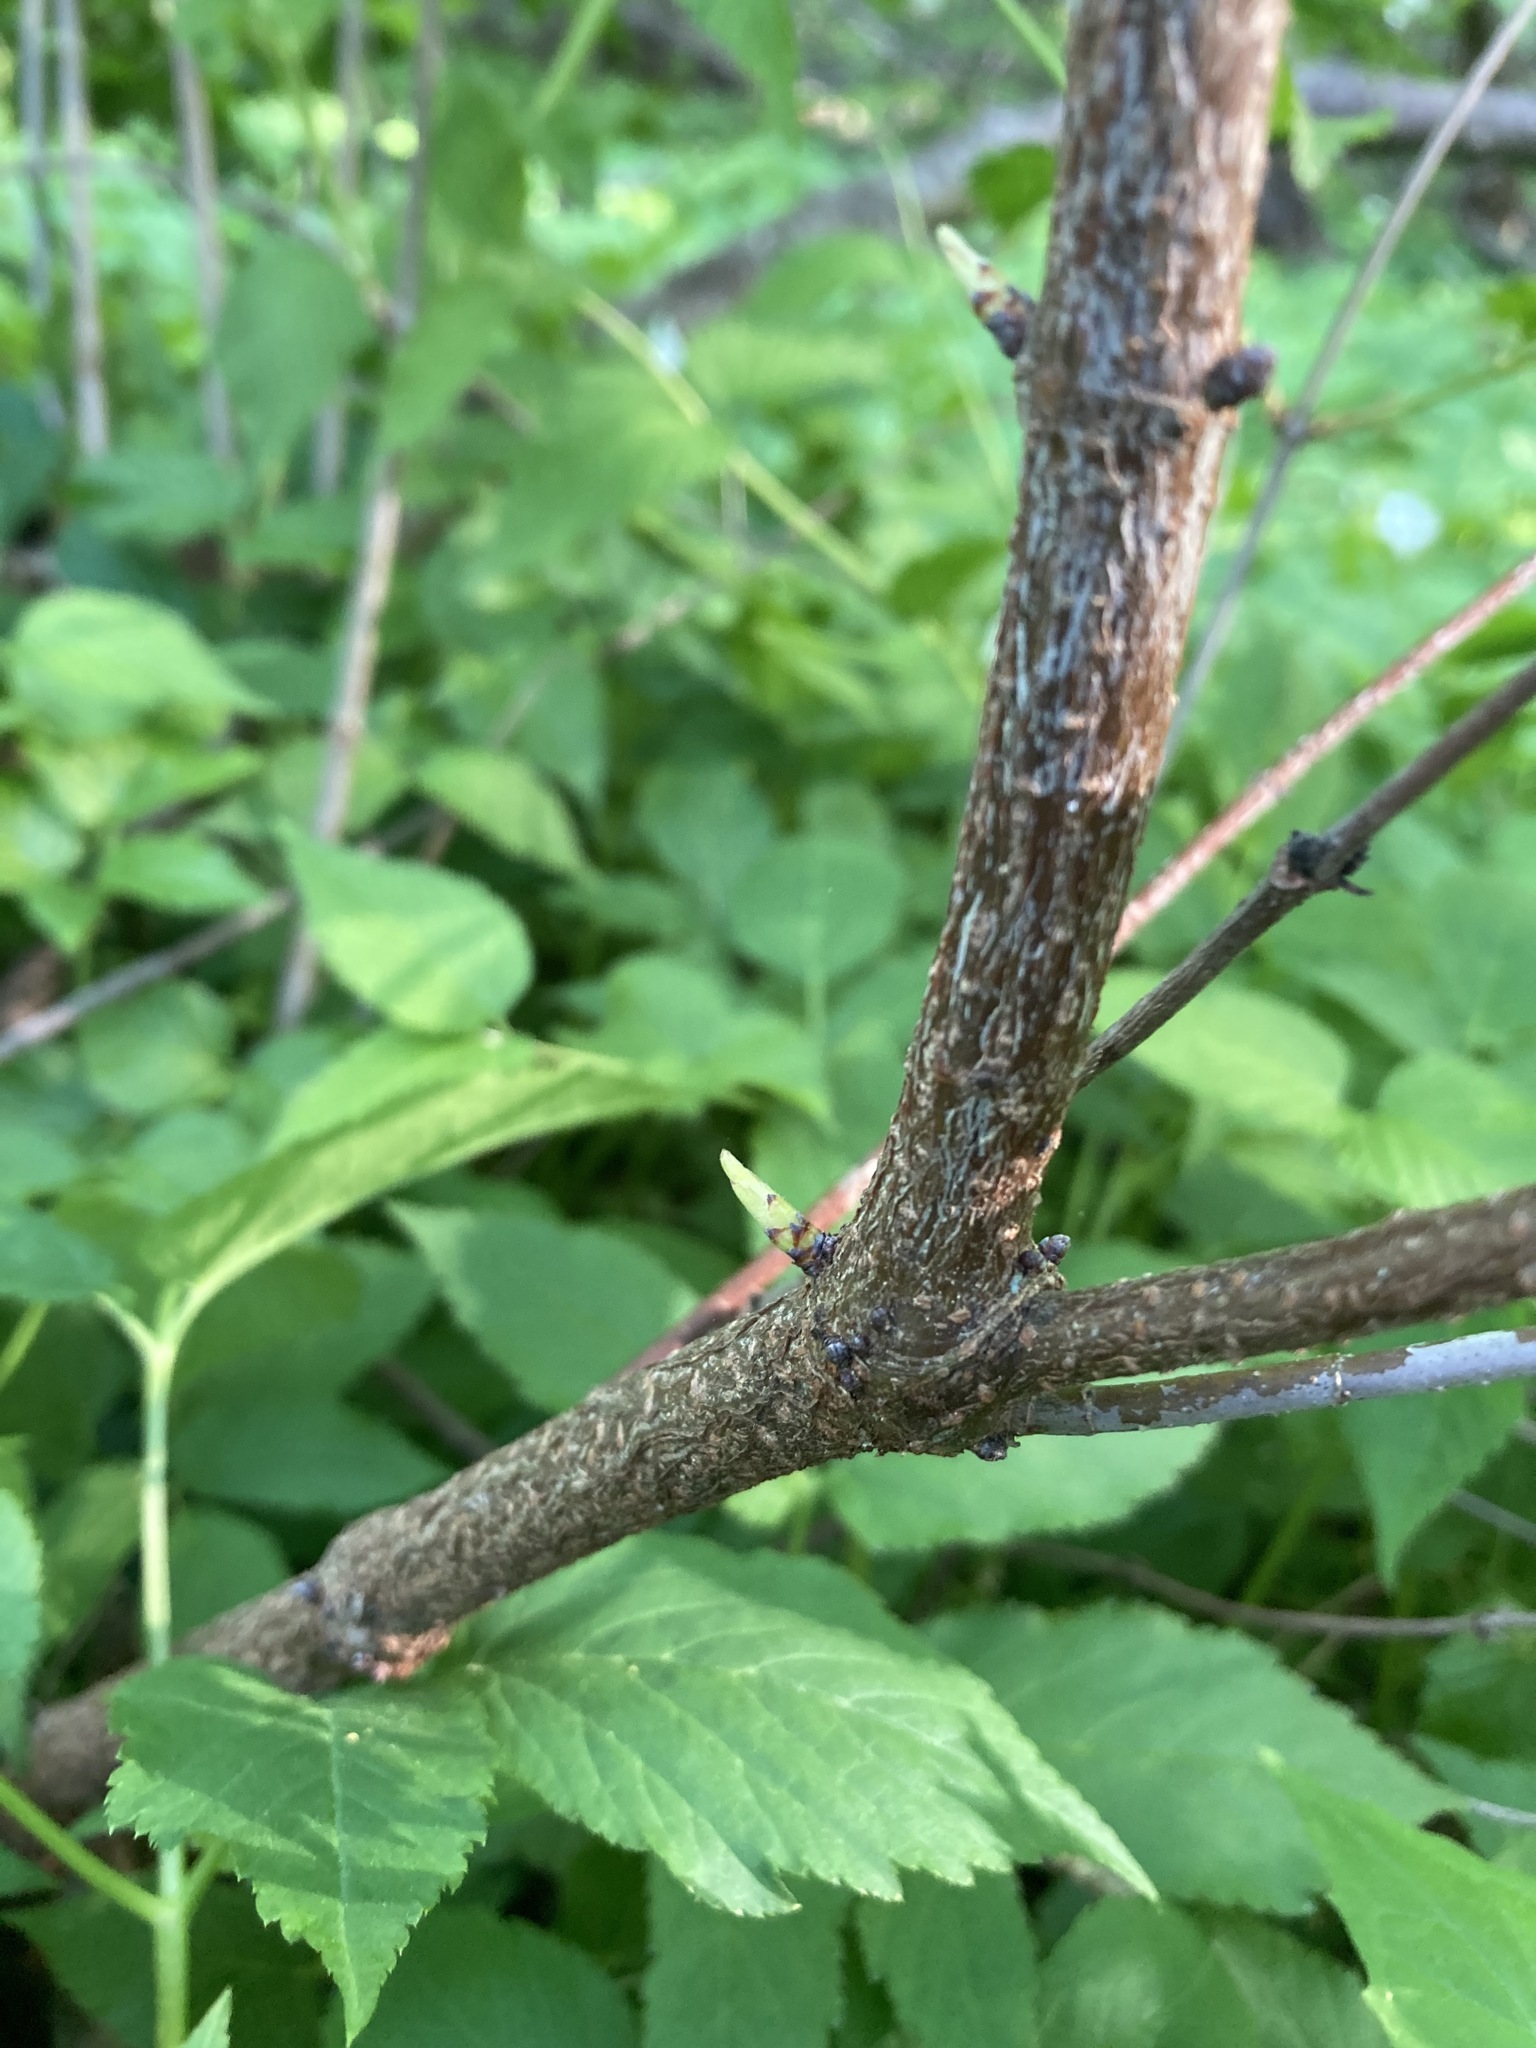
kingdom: Plantae
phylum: Tracheophyta
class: Magnoliopsida
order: Rosales
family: Rosaceae
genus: Rhodotypos
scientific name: Rhodotypos scandens
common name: Jetbead
